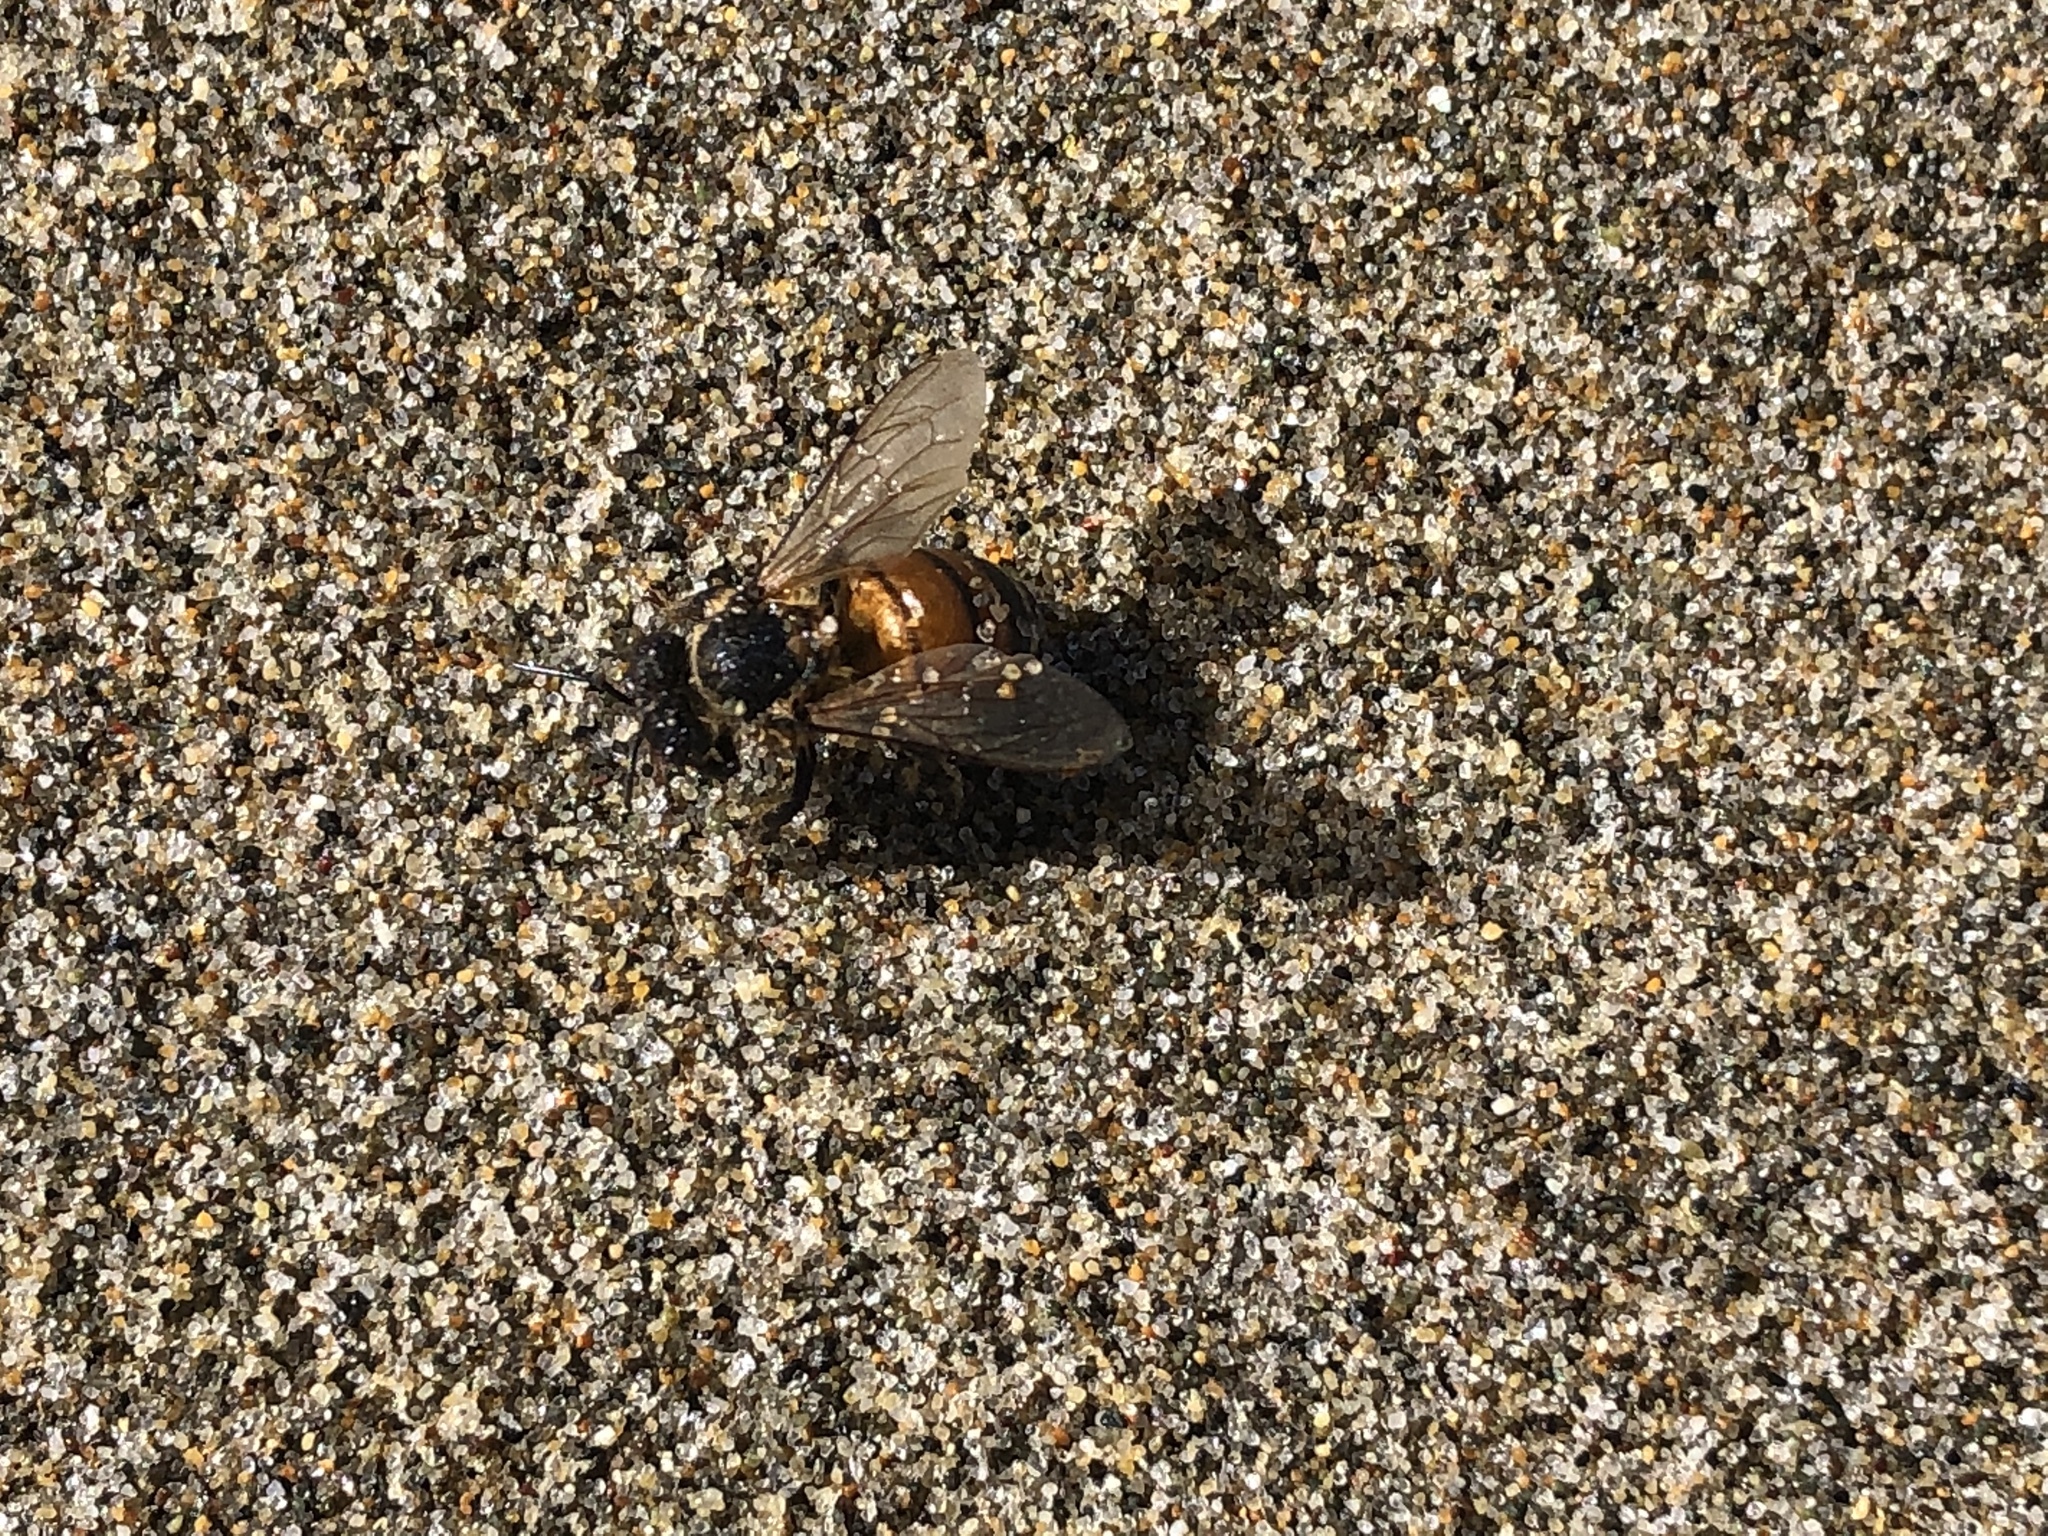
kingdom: Animalia
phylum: Arthropoda
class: Insecta
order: Hymenoptera
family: Apidae
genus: Apis
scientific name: Apis mellifera
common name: Honey bee
